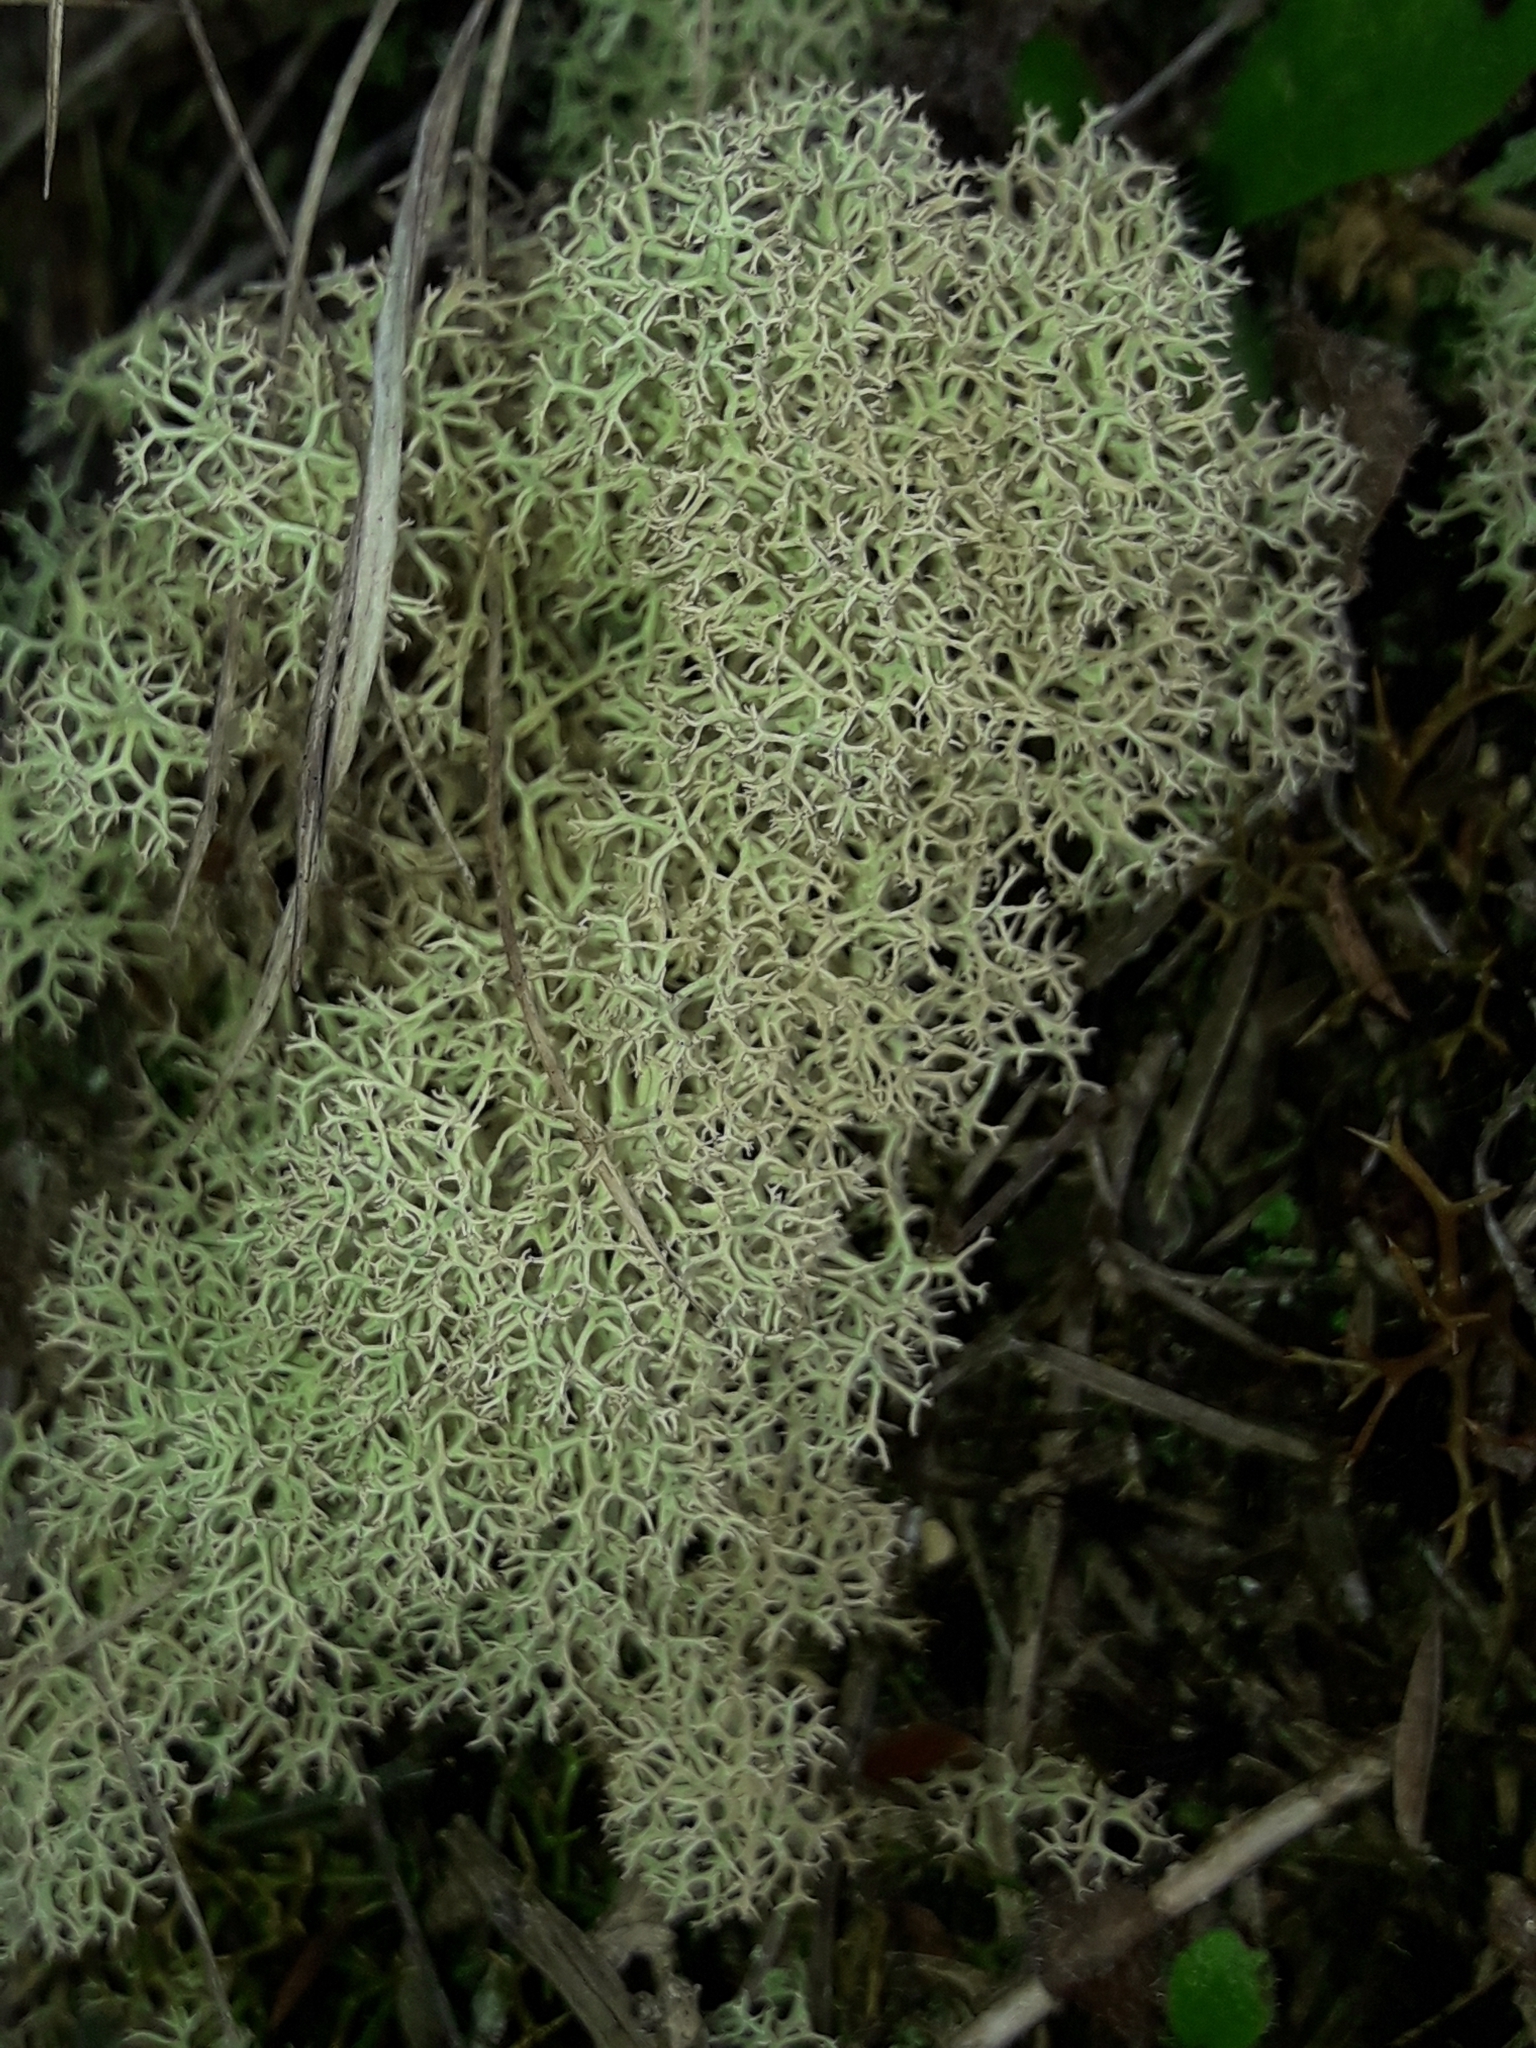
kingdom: Fungi
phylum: Ascomycota
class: Lecanoromycetes
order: Lecanorales
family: Cladoniaceae
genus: Cladonia
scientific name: Cladonia confusa
